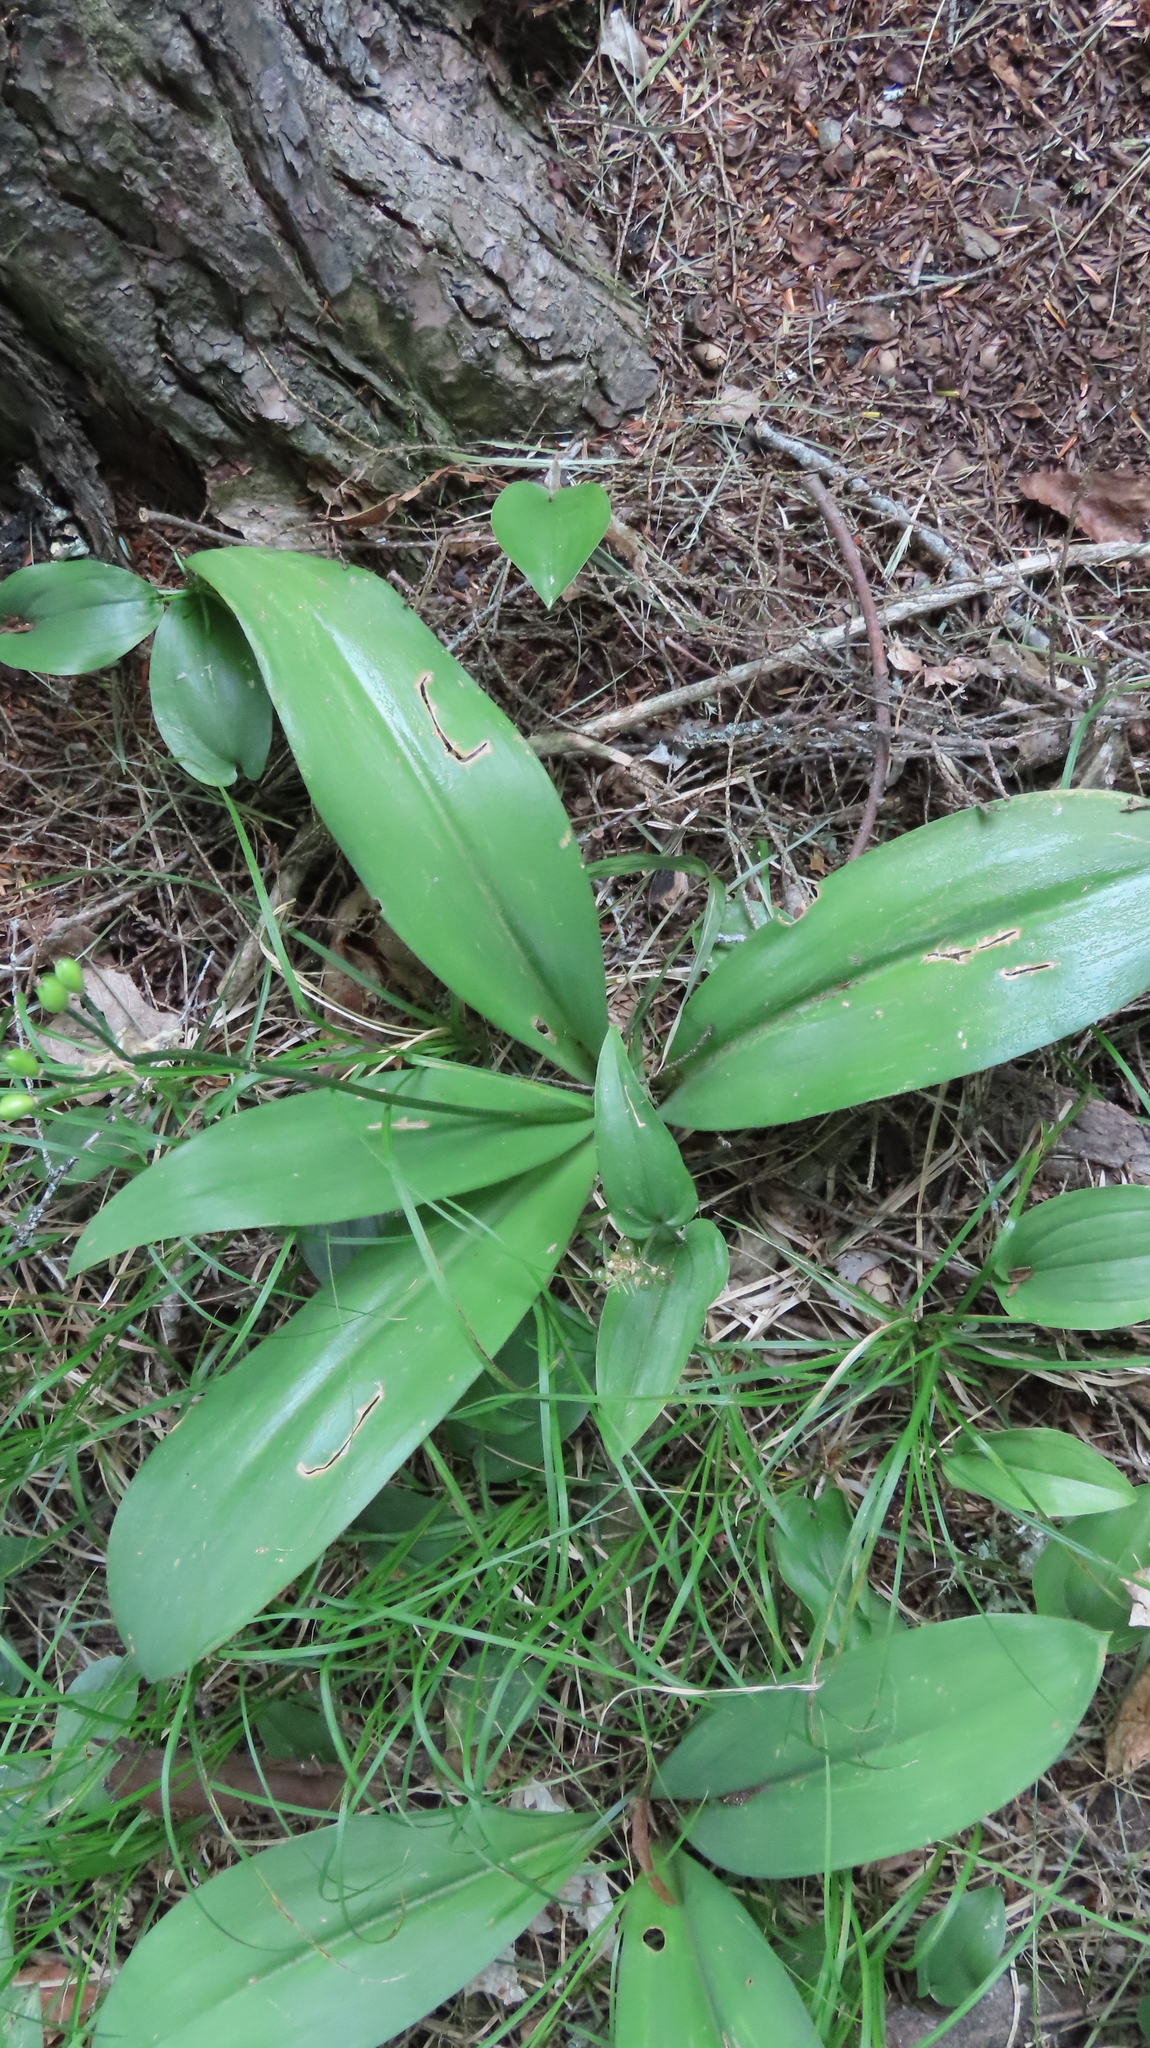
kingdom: Plantae
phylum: Tracheophyta
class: Liliopsida
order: Liliales
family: Liliaceae
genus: Clintonia
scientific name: Clintonia borealis
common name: Yellow clintonia
